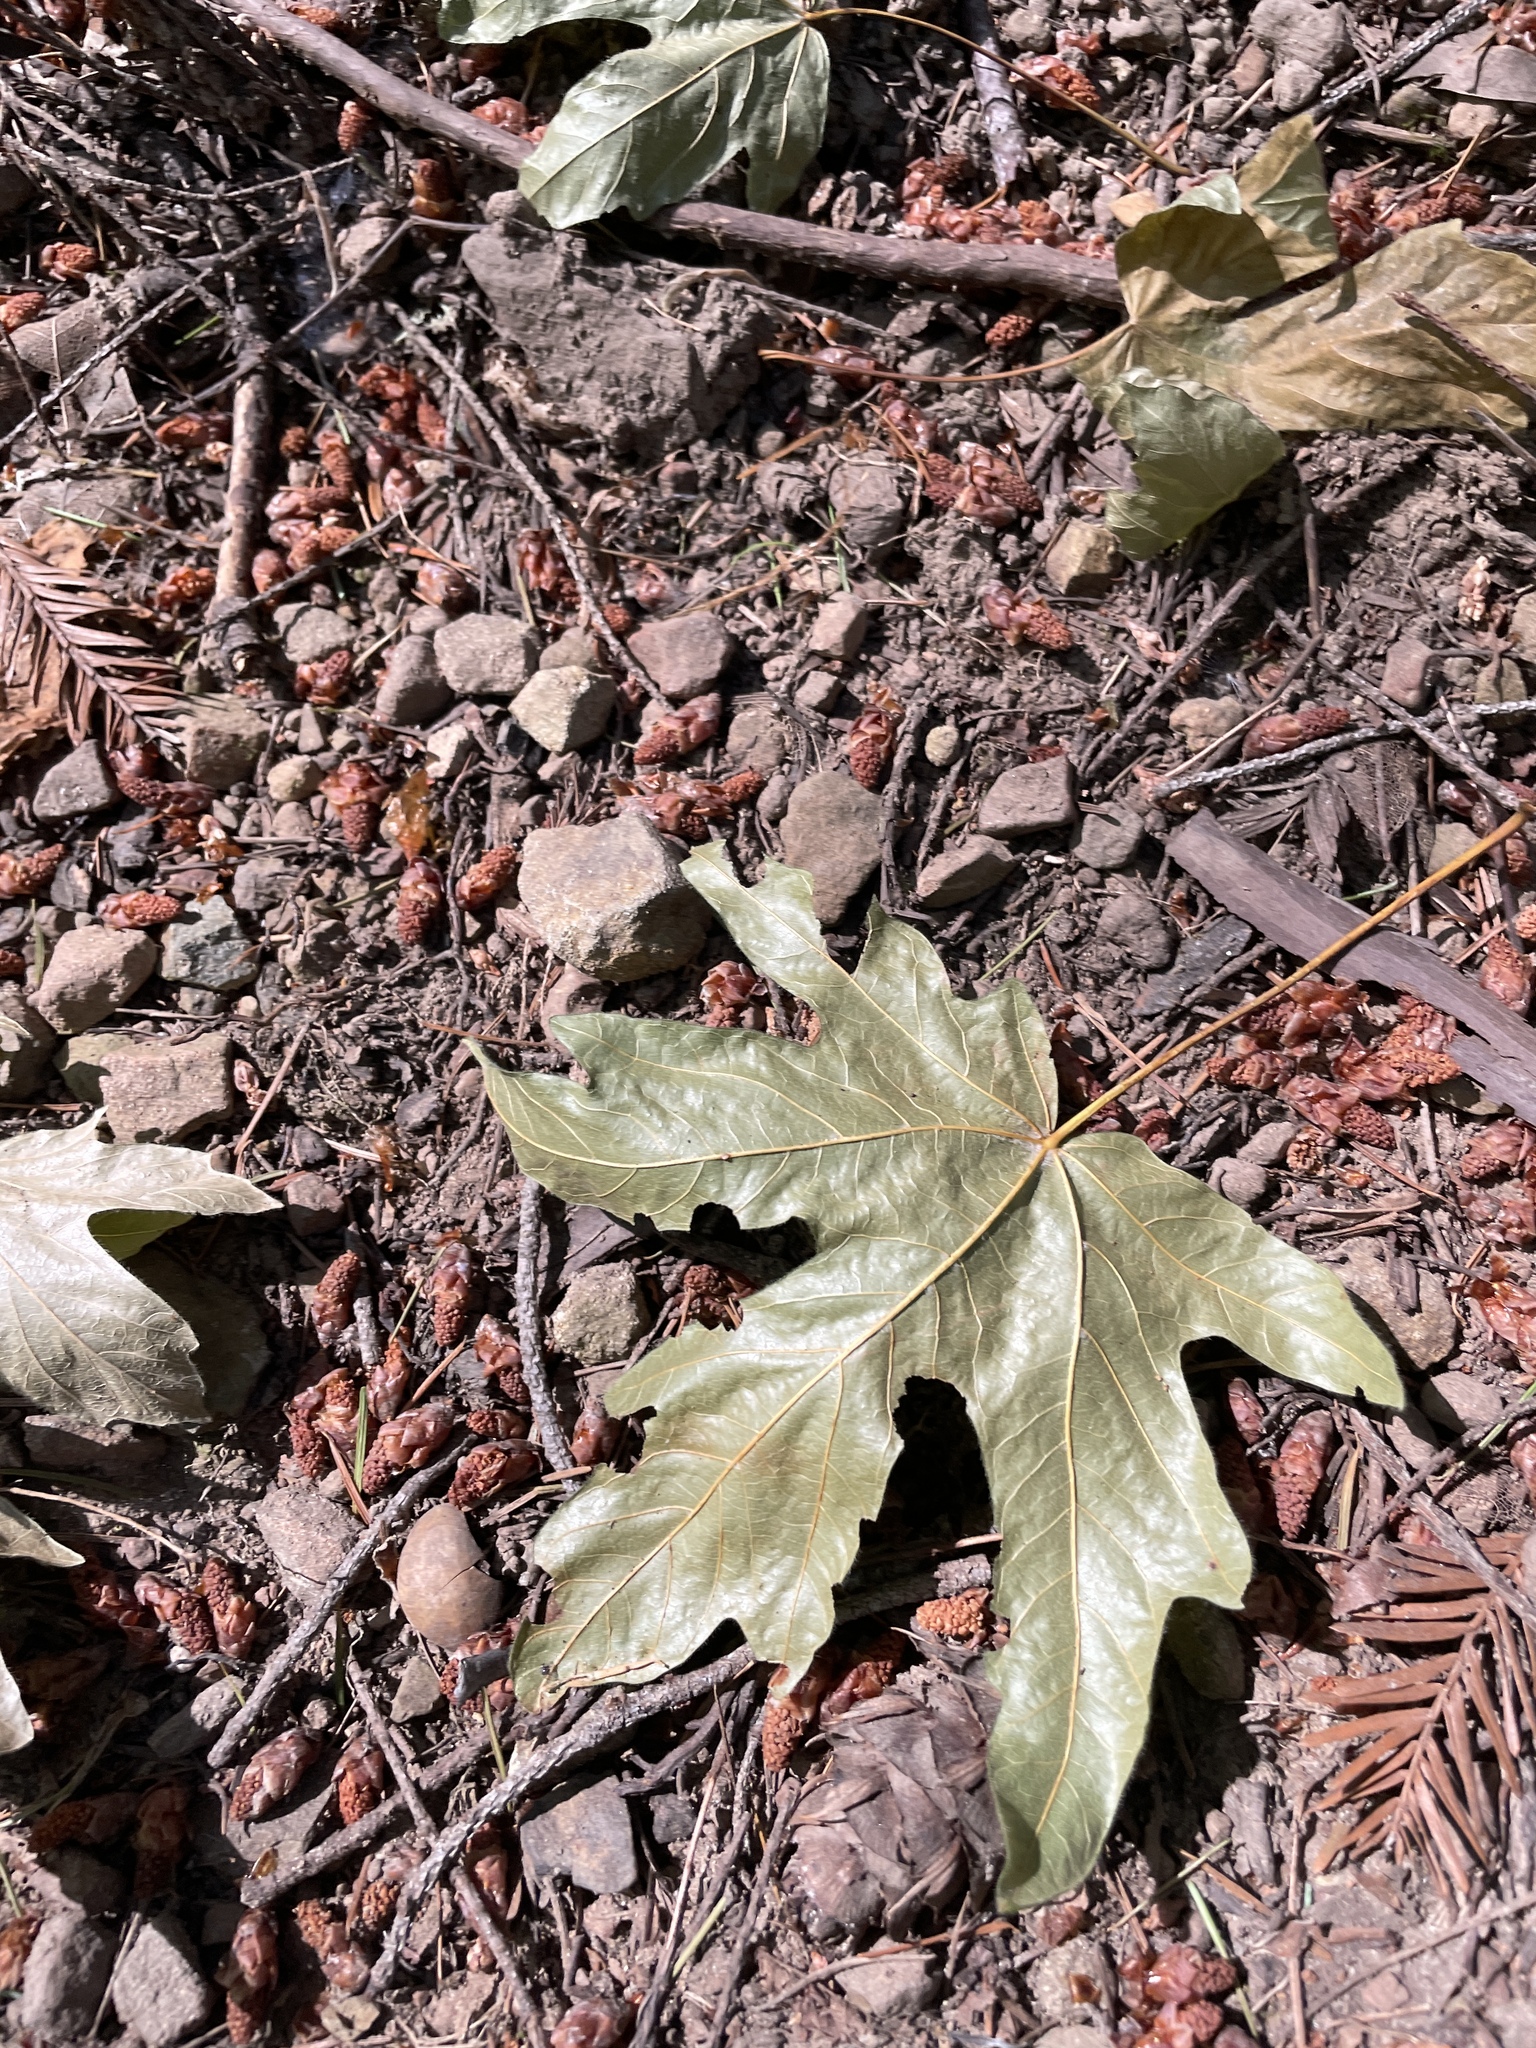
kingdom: Plantae
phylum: Tracheophyta
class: Magnoliopsida
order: Sapindales
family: Sapindaceae
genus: Acer
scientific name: Acer macrophyllum
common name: Oregon maple
